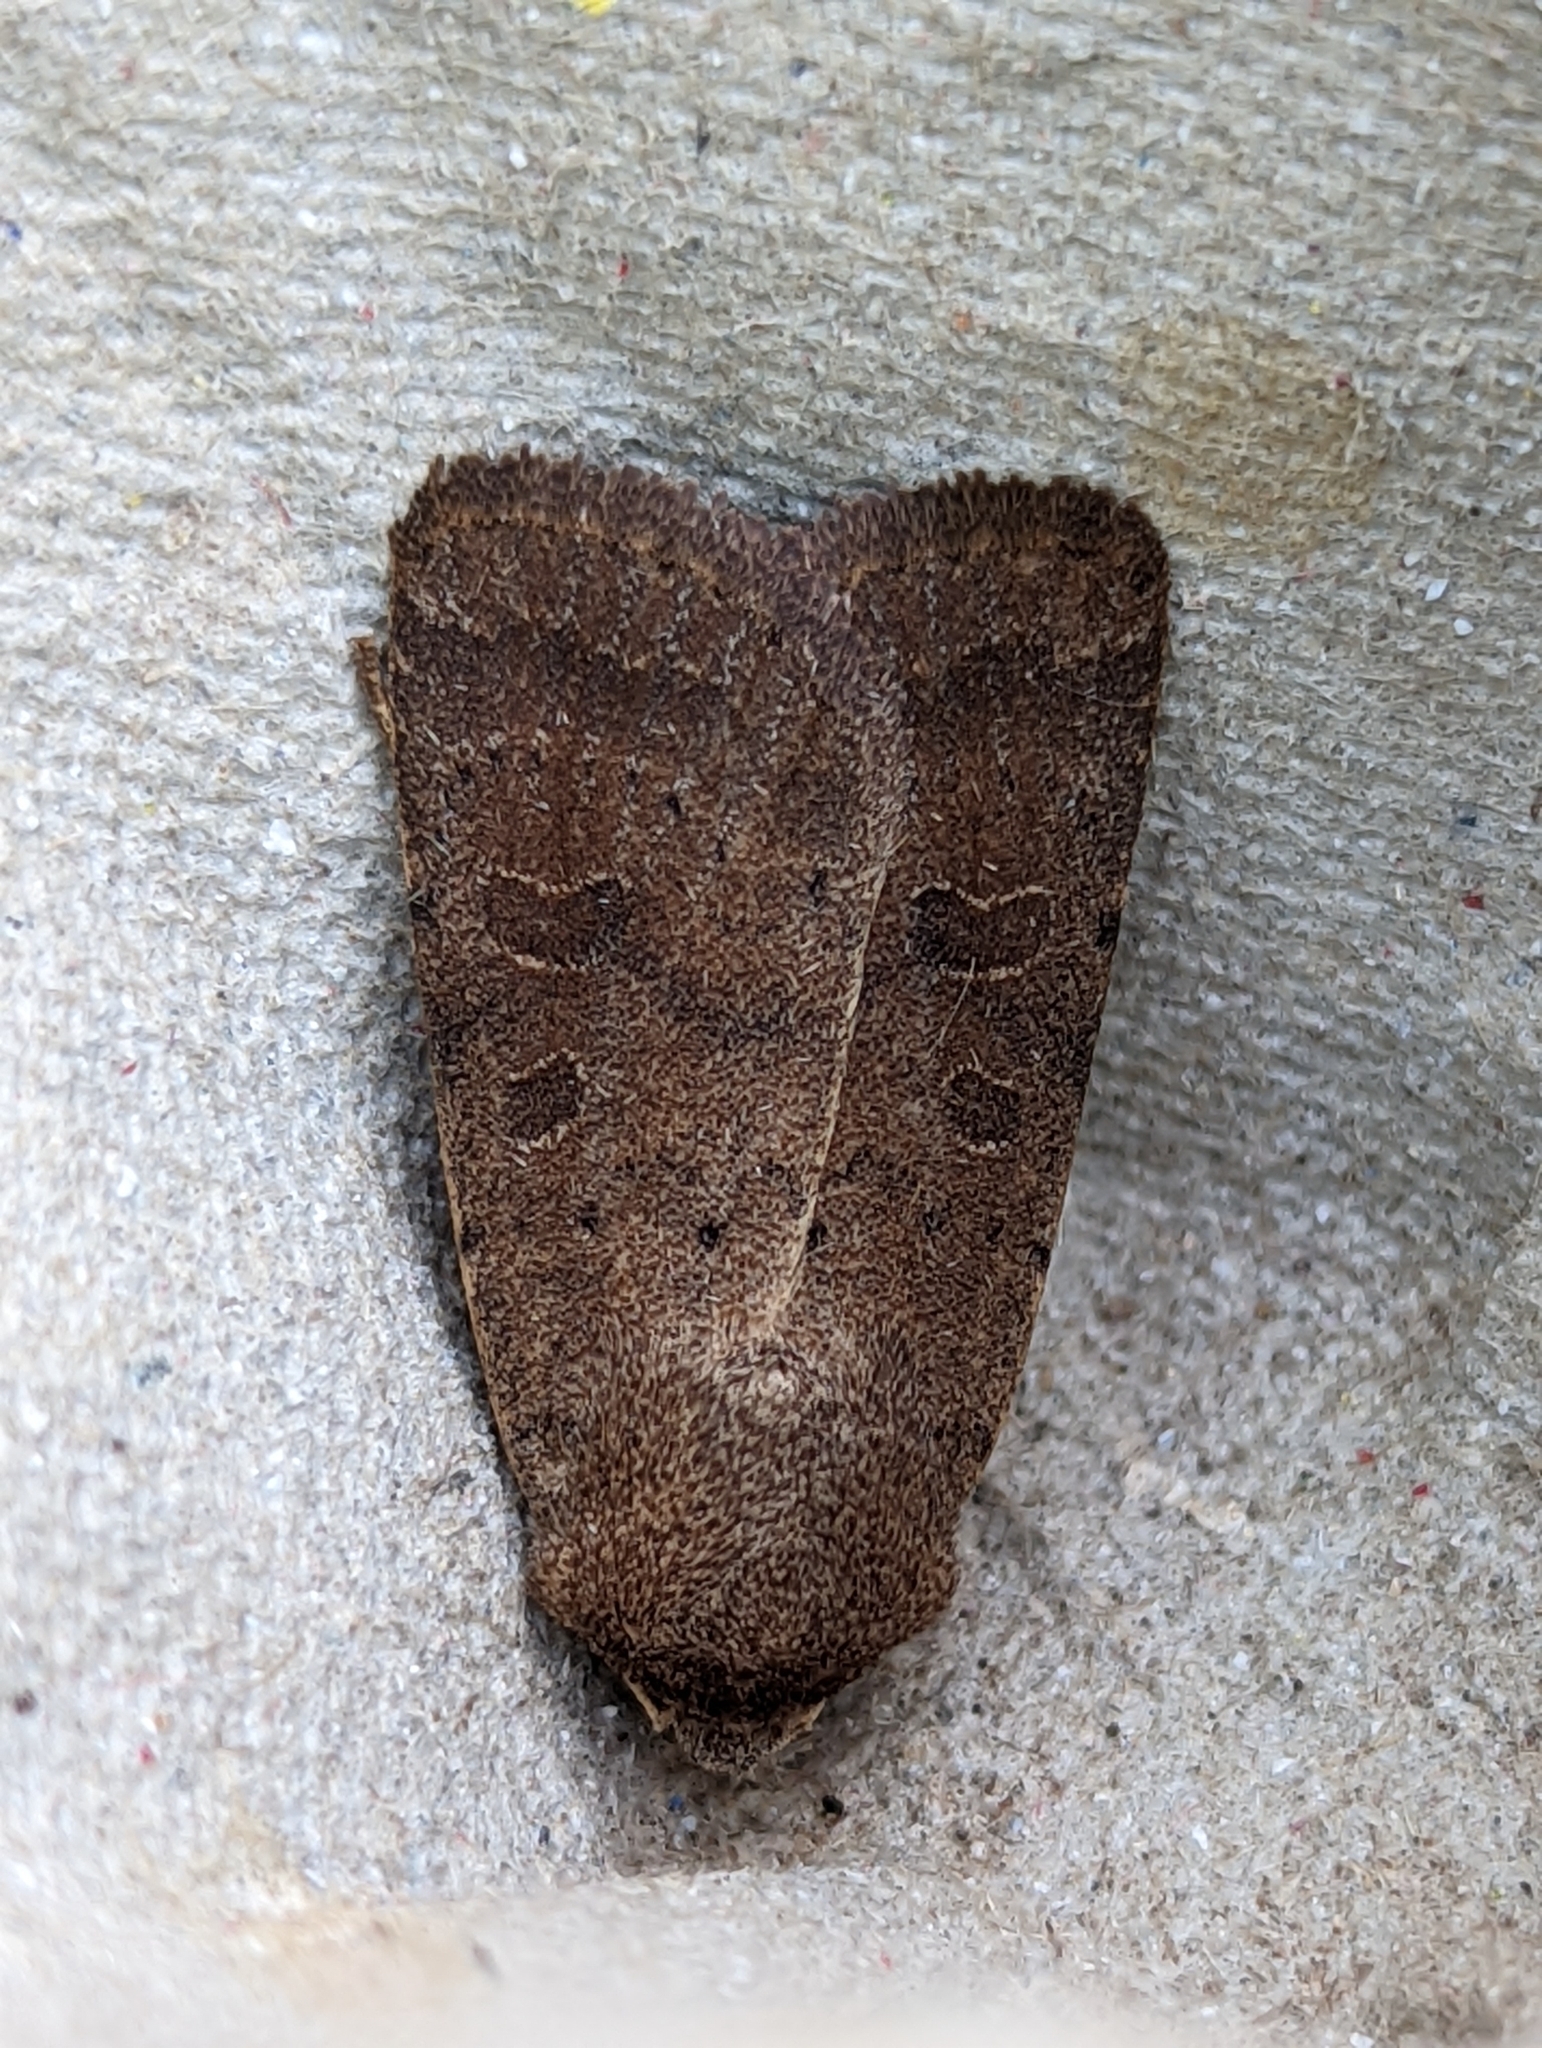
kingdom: Animalia
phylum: Arthropoda
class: Insecta
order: Lepidoptera
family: Noctuidae
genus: Hoplodrina
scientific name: Hoplodrina blanda
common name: Rustic
